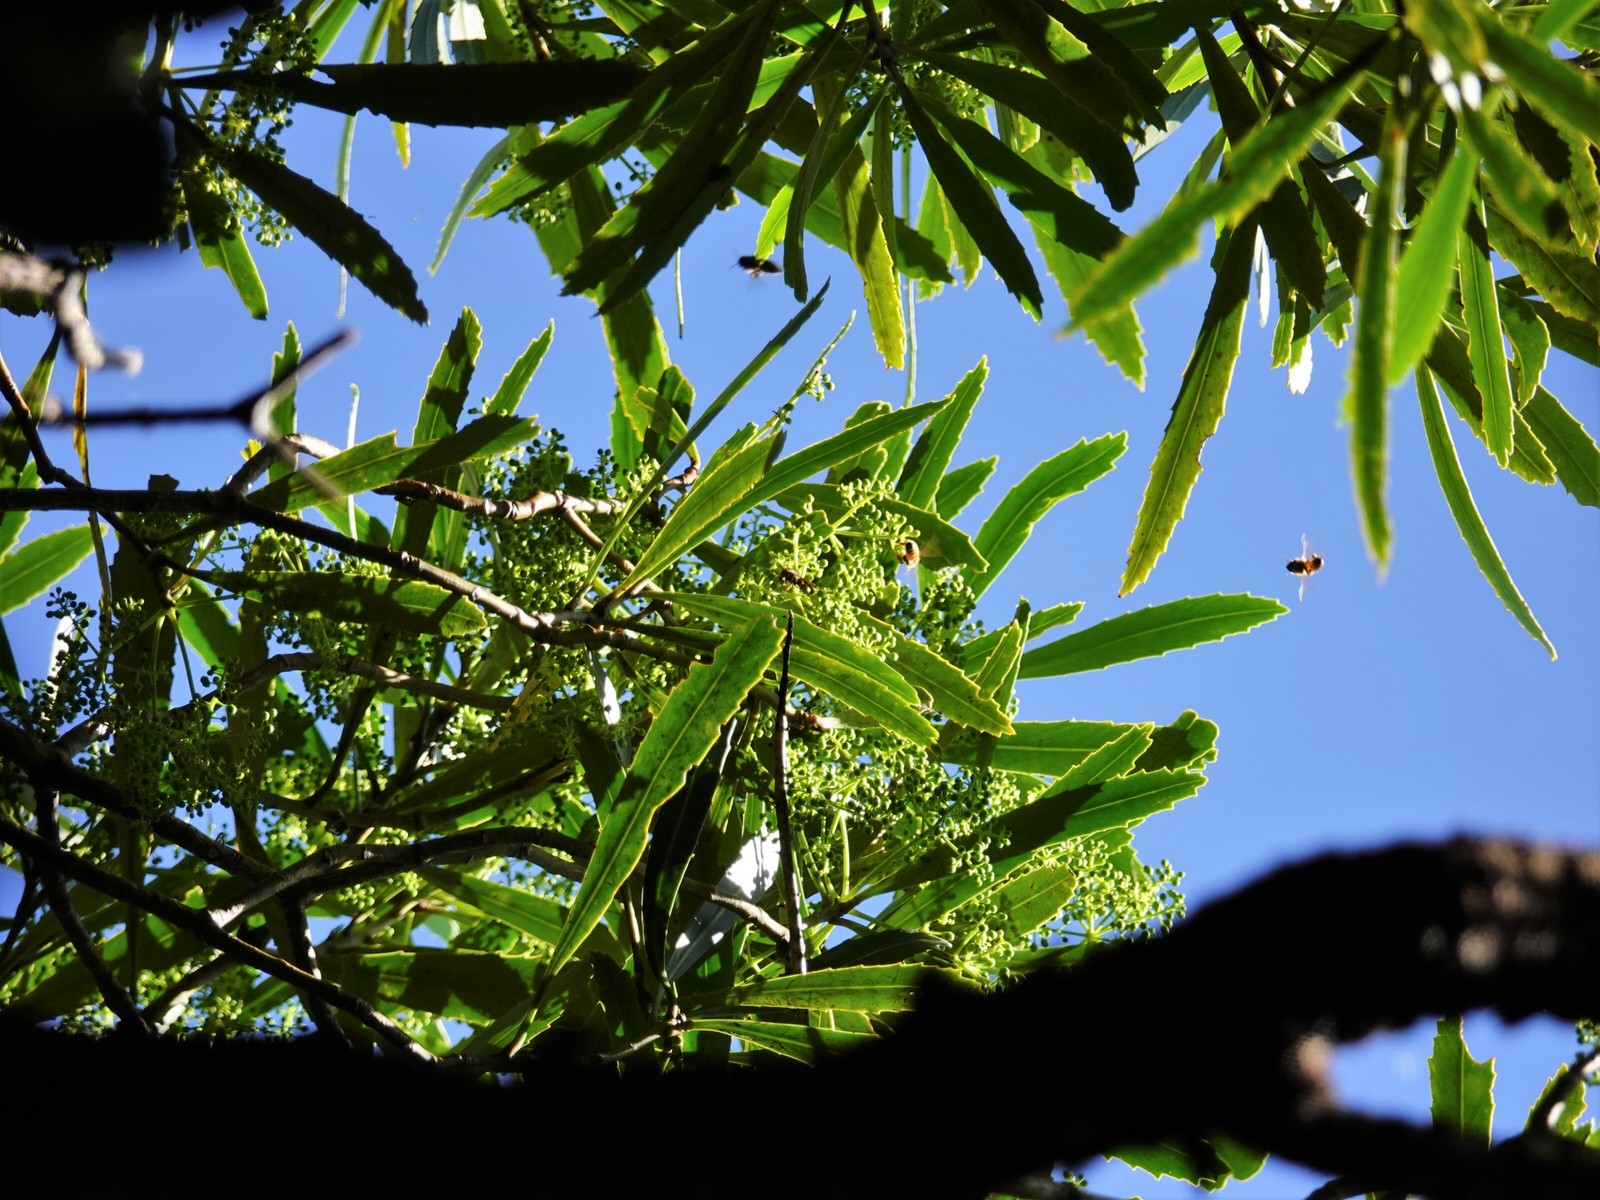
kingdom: Plantae
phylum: Tracheophyta
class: Magnoliopsida
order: Apiales
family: Araliaceae
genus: Pseudopanax
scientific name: Pseudopanax crassifolius
